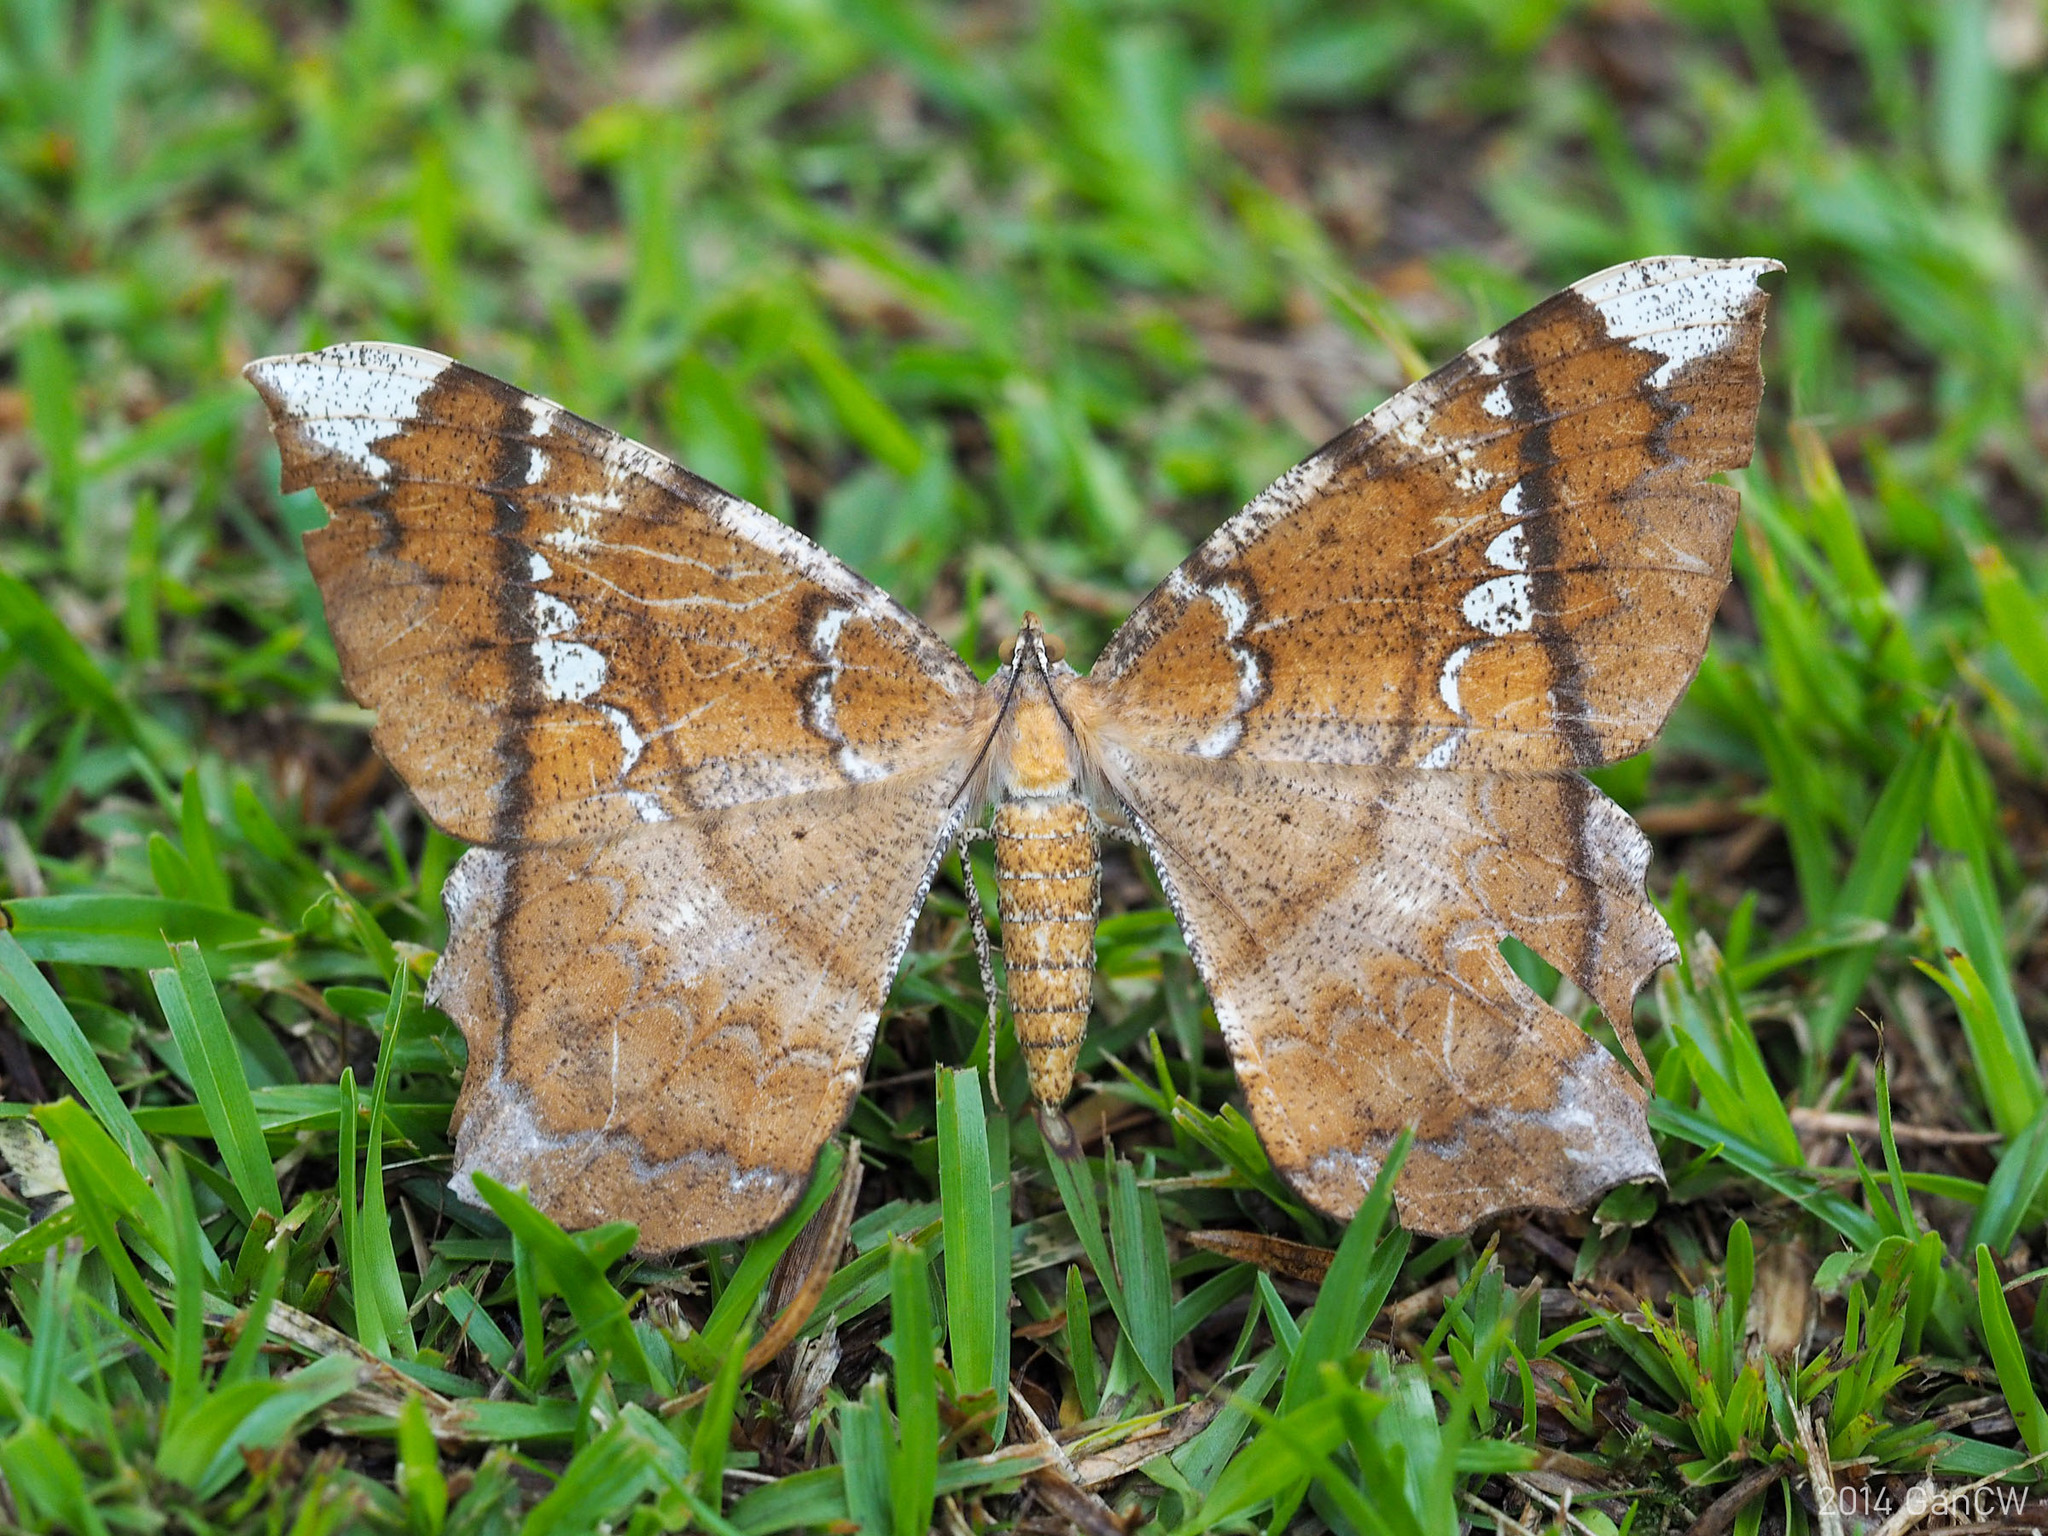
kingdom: Animalia
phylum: Arthropoda
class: Insecta
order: Lepidoptera
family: Geometridae
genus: Amblychia
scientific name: Amblychia angeronaria
